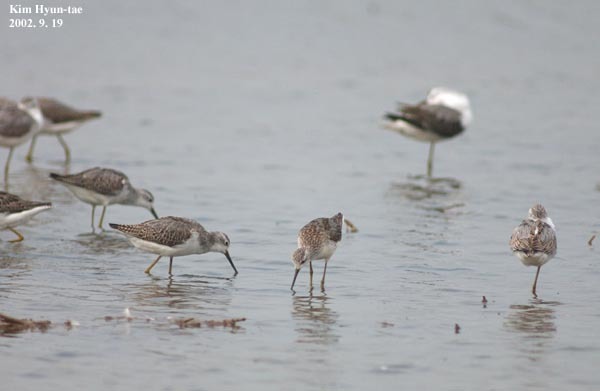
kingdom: Animalia
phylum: Chordata
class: Aves
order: Charadriiformes
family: Scolopacidae
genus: Tringa
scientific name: Tringa stagnatilis
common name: Marsh sandpiper
